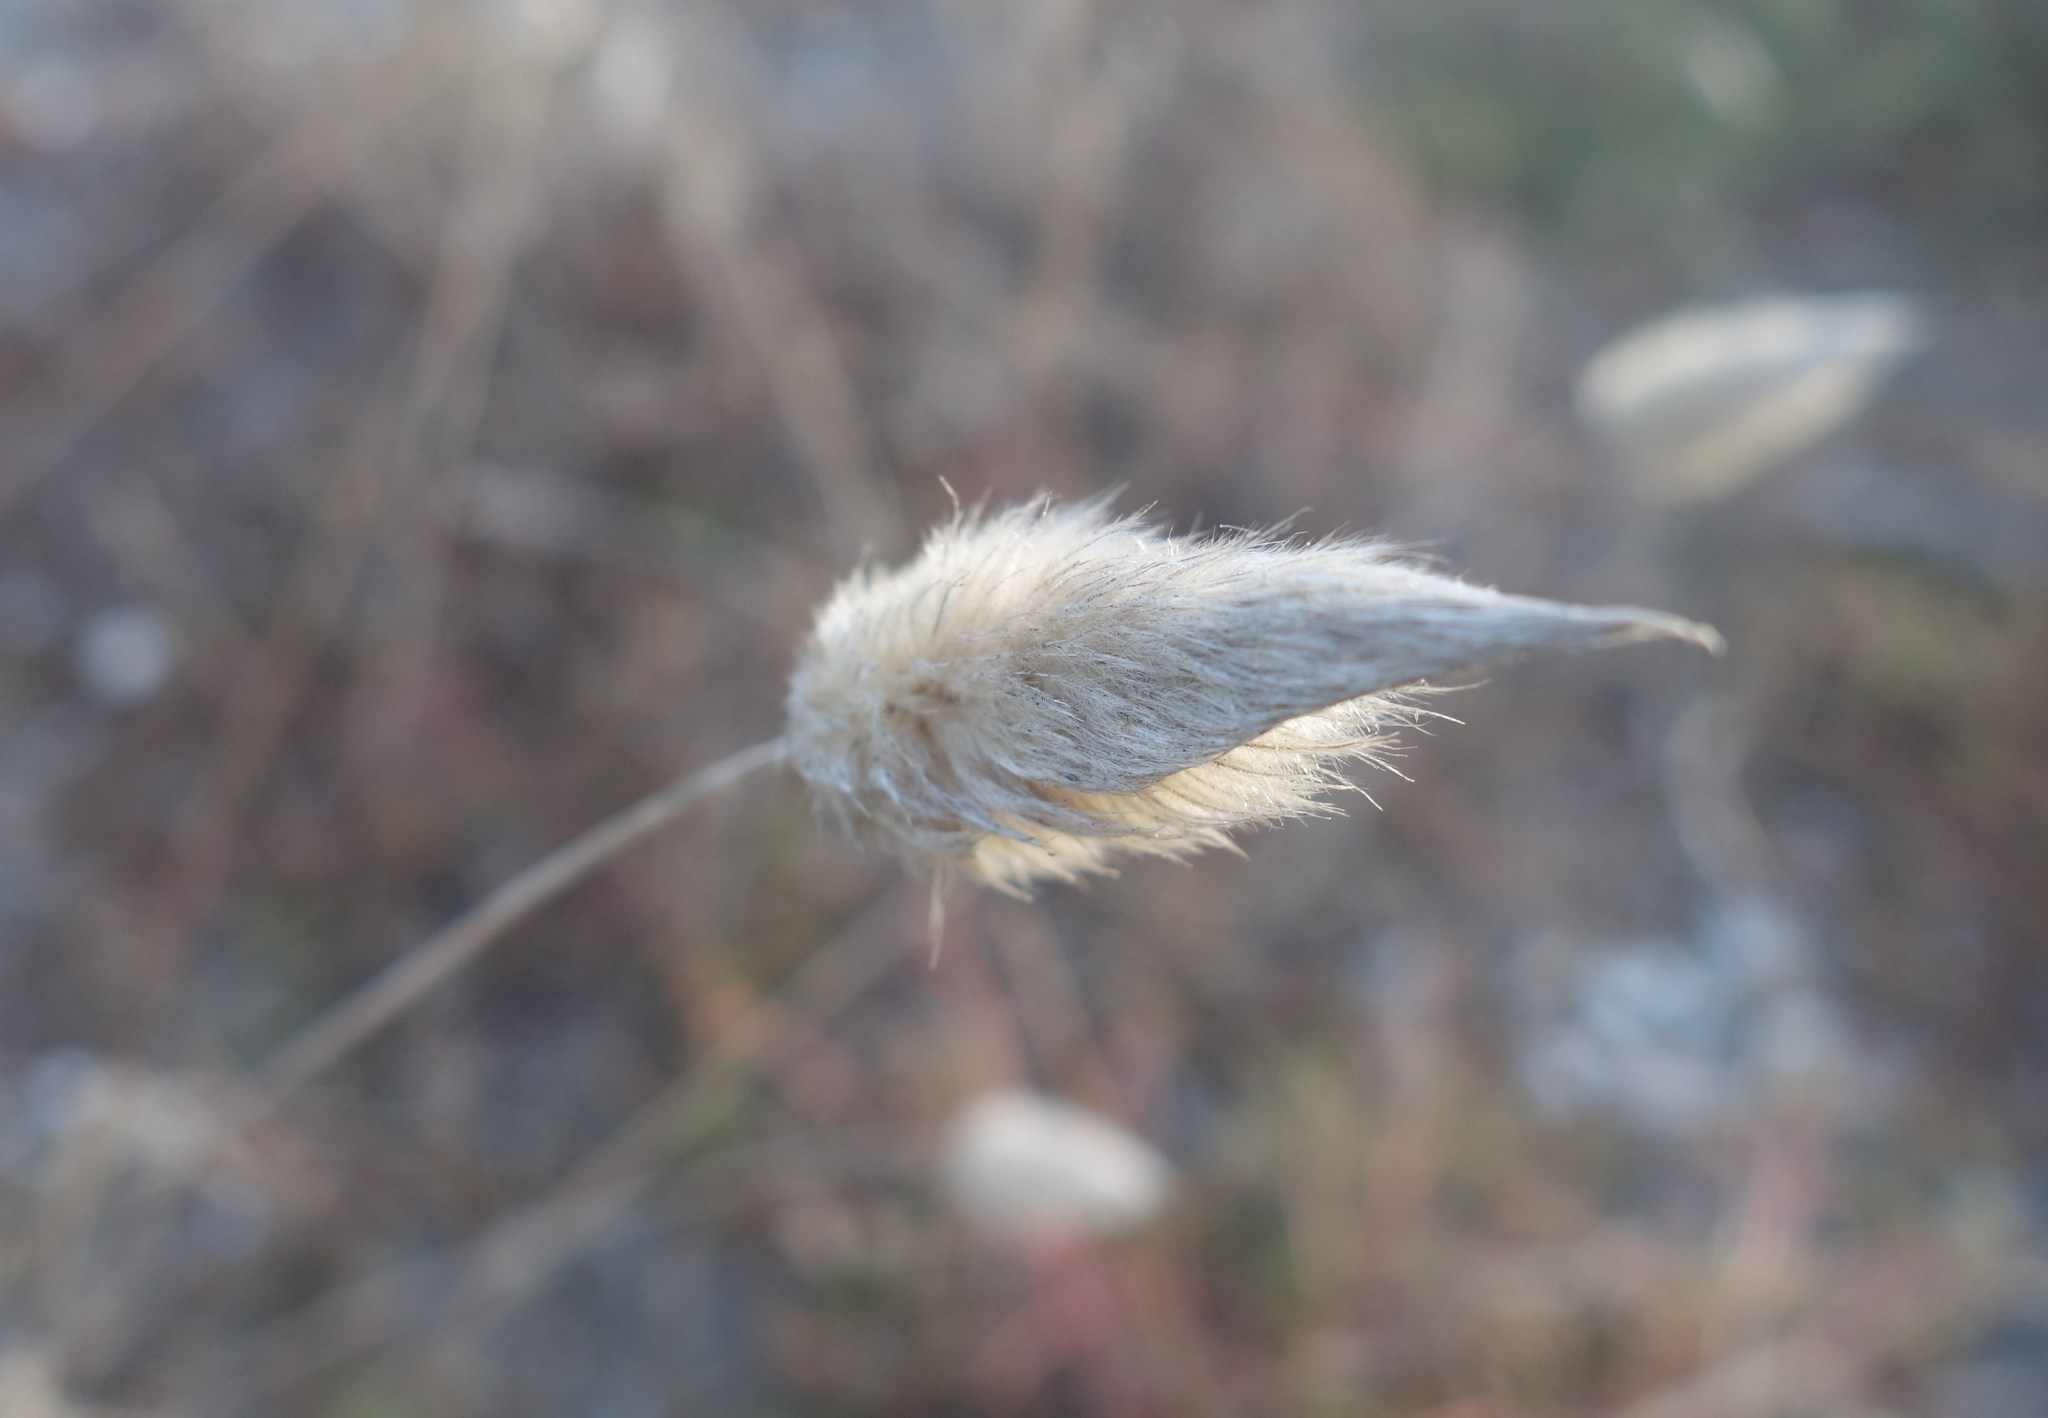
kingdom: Plantae
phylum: Tracheophyta
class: Liliopsida
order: Poales
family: Poaceae
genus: Lagurus
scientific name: Lagurus ovatus
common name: Hare's-tail
